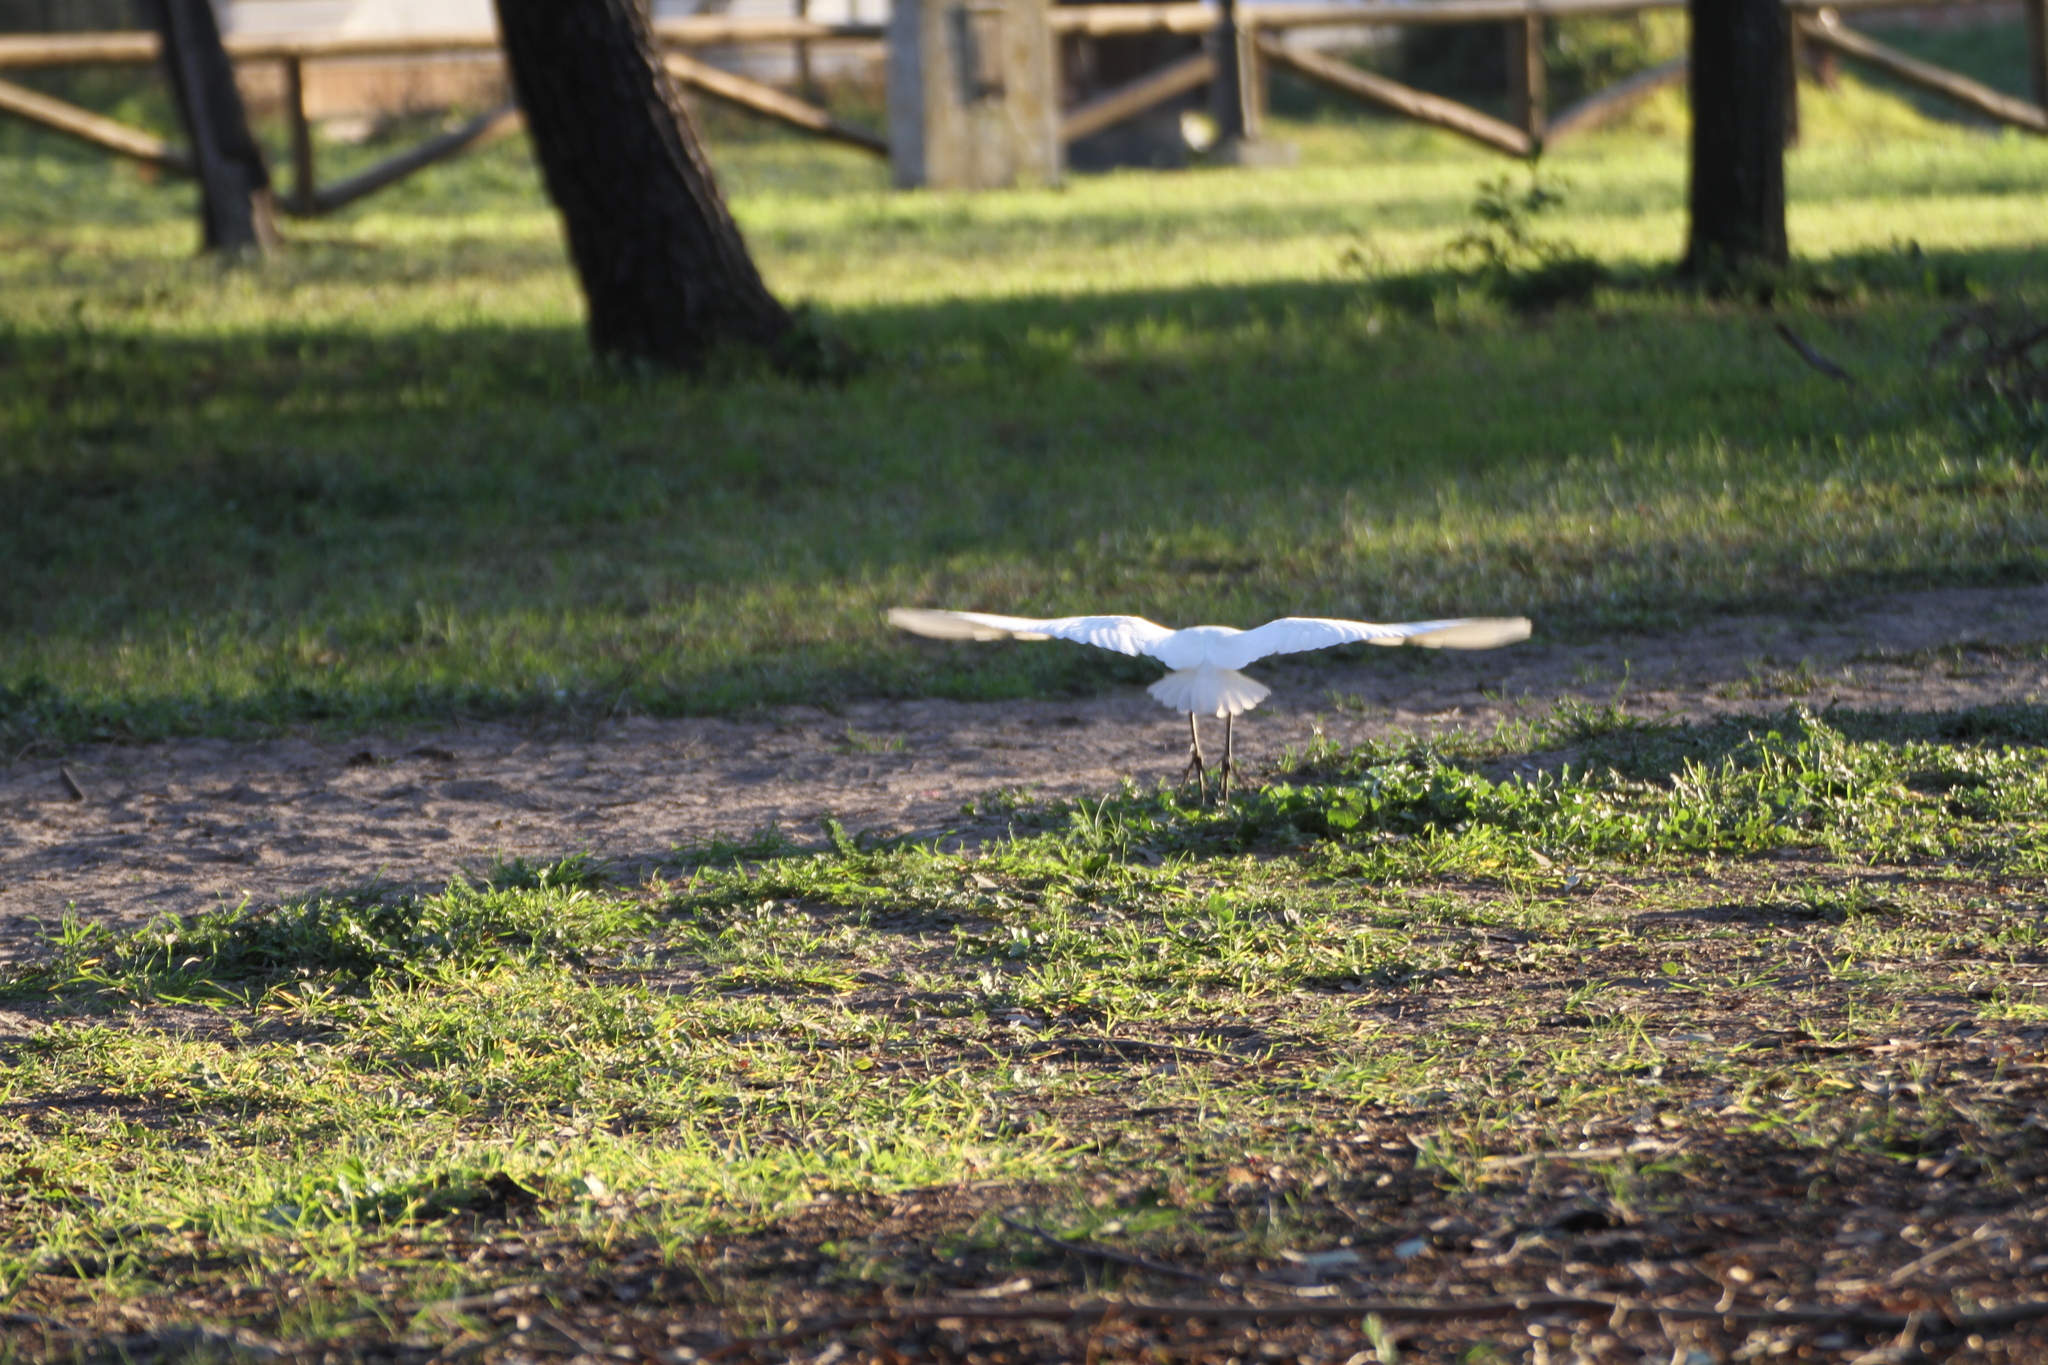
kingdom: Animalia
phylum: Chordata
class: Aves
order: Pelecaniformes
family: Ardeidae
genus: Bubulcus
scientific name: Bubulcus ibis
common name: Cattle egret
